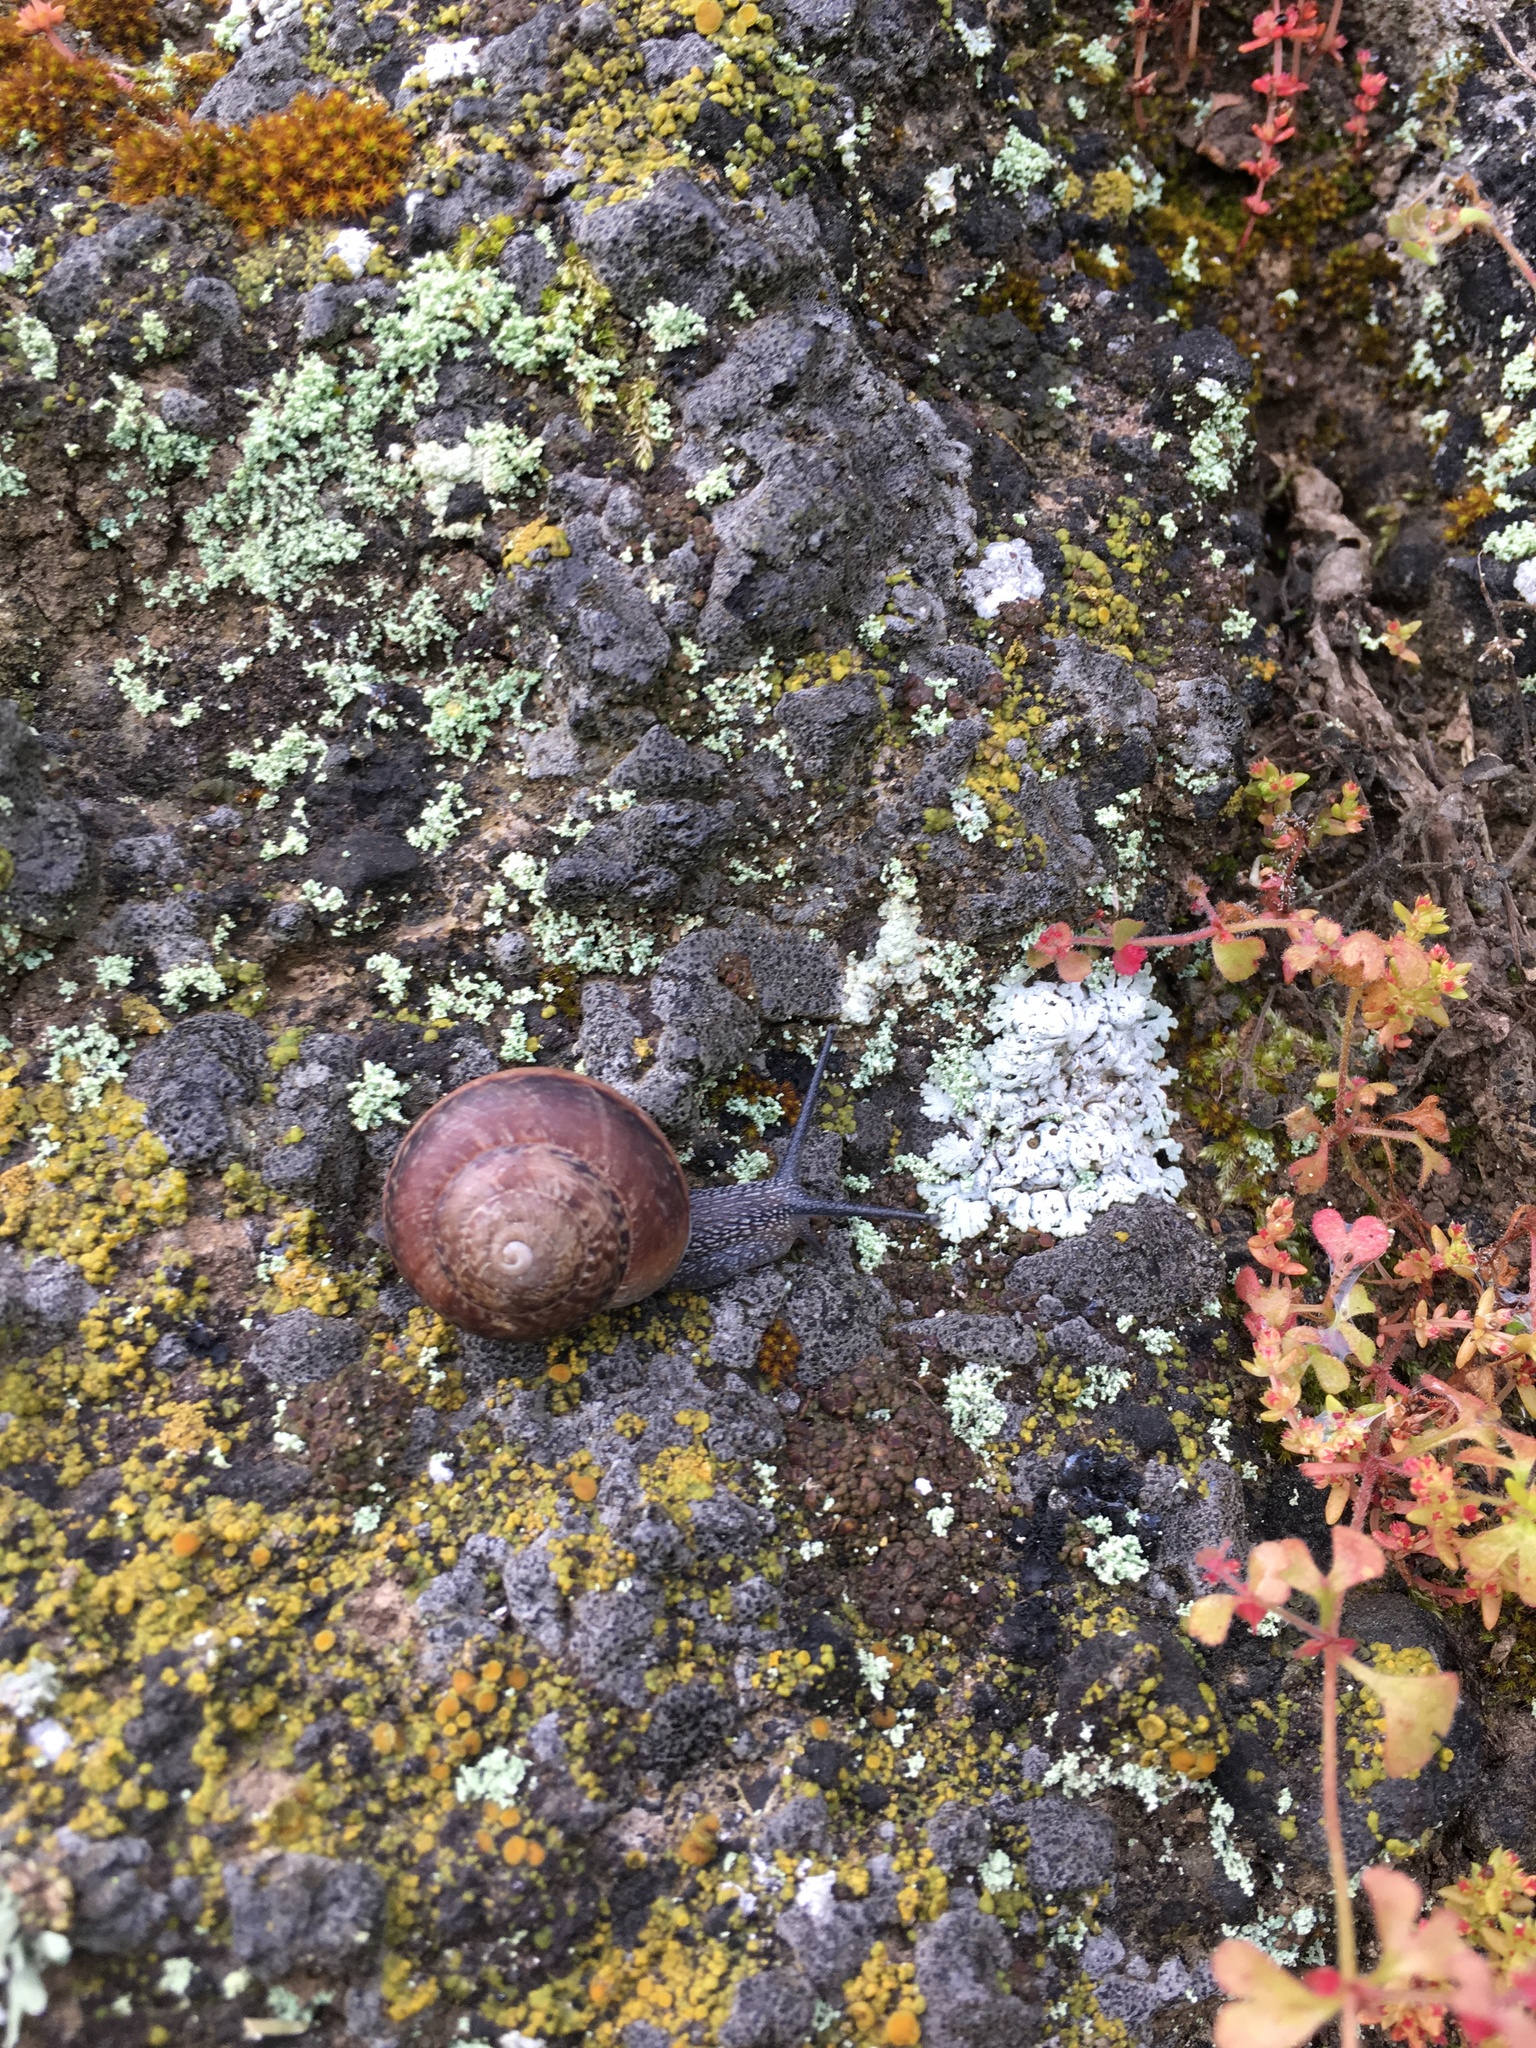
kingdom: Plantae
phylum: Tracheophyta
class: Magnoliopsida
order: Caryophyllales
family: Polygonaceae
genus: Pterostegia
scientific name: Pterostegia drymarioides
